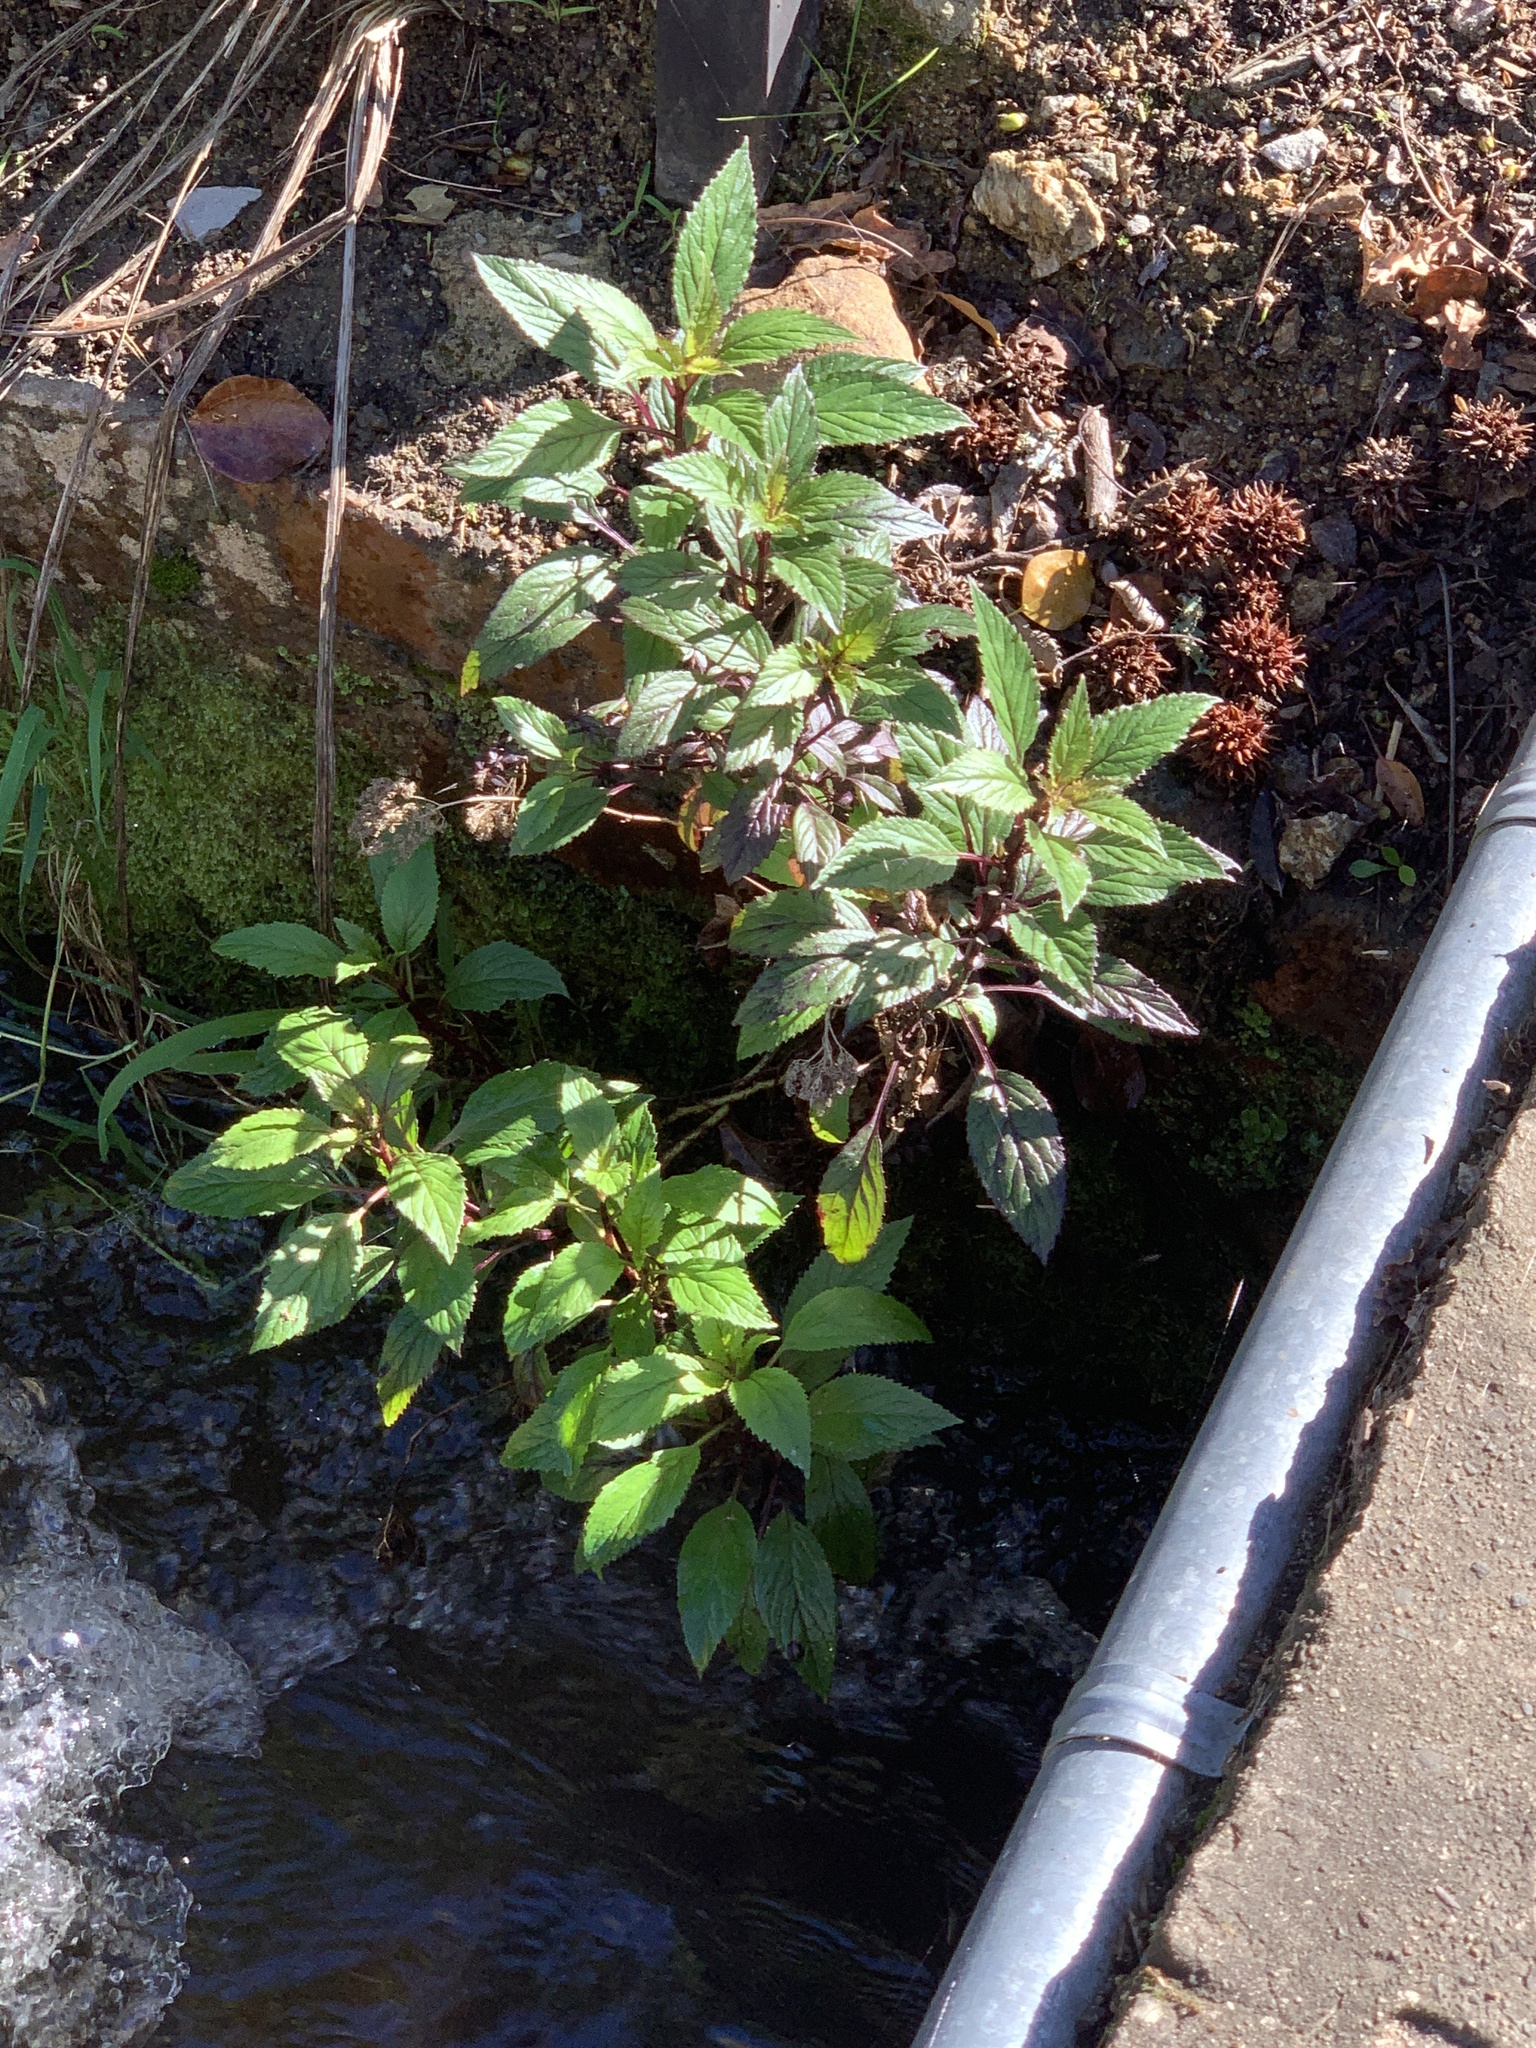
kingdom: Plantae
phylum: Tracheophyta
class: Magnoliopsida
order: Asterales
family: Campanulaceae
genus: Trachelium
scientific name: Trachelium caeruleum
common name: Throatwort
